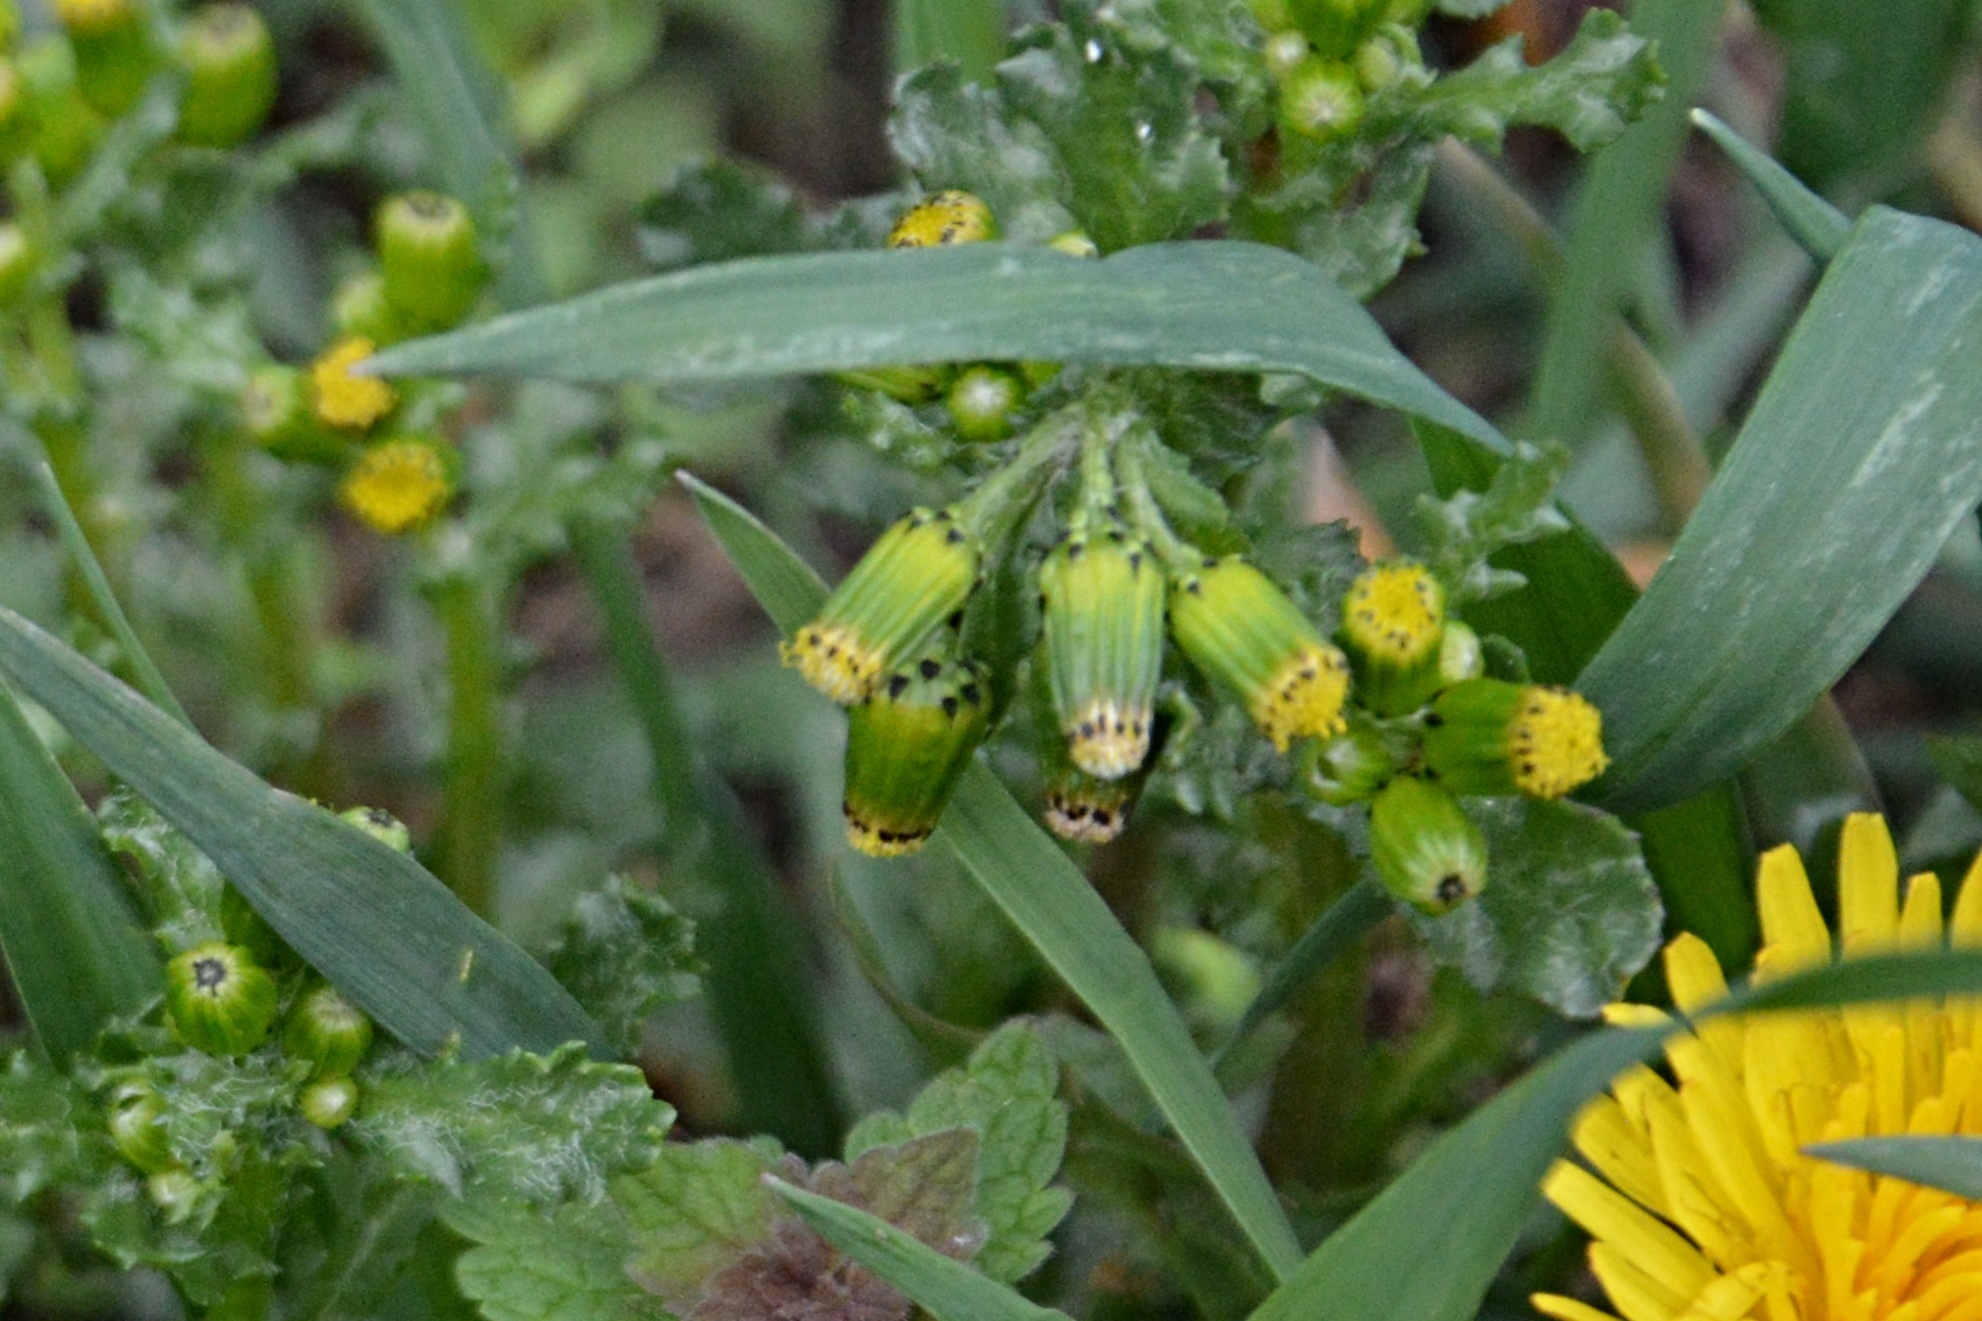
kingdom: Plantae
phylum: Tracheophyta
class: Magnoliopsida
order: Asterales
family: Asteraceae
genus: Senecio
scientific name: Senecio vulgaris
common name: Old-man-in-the-spring
